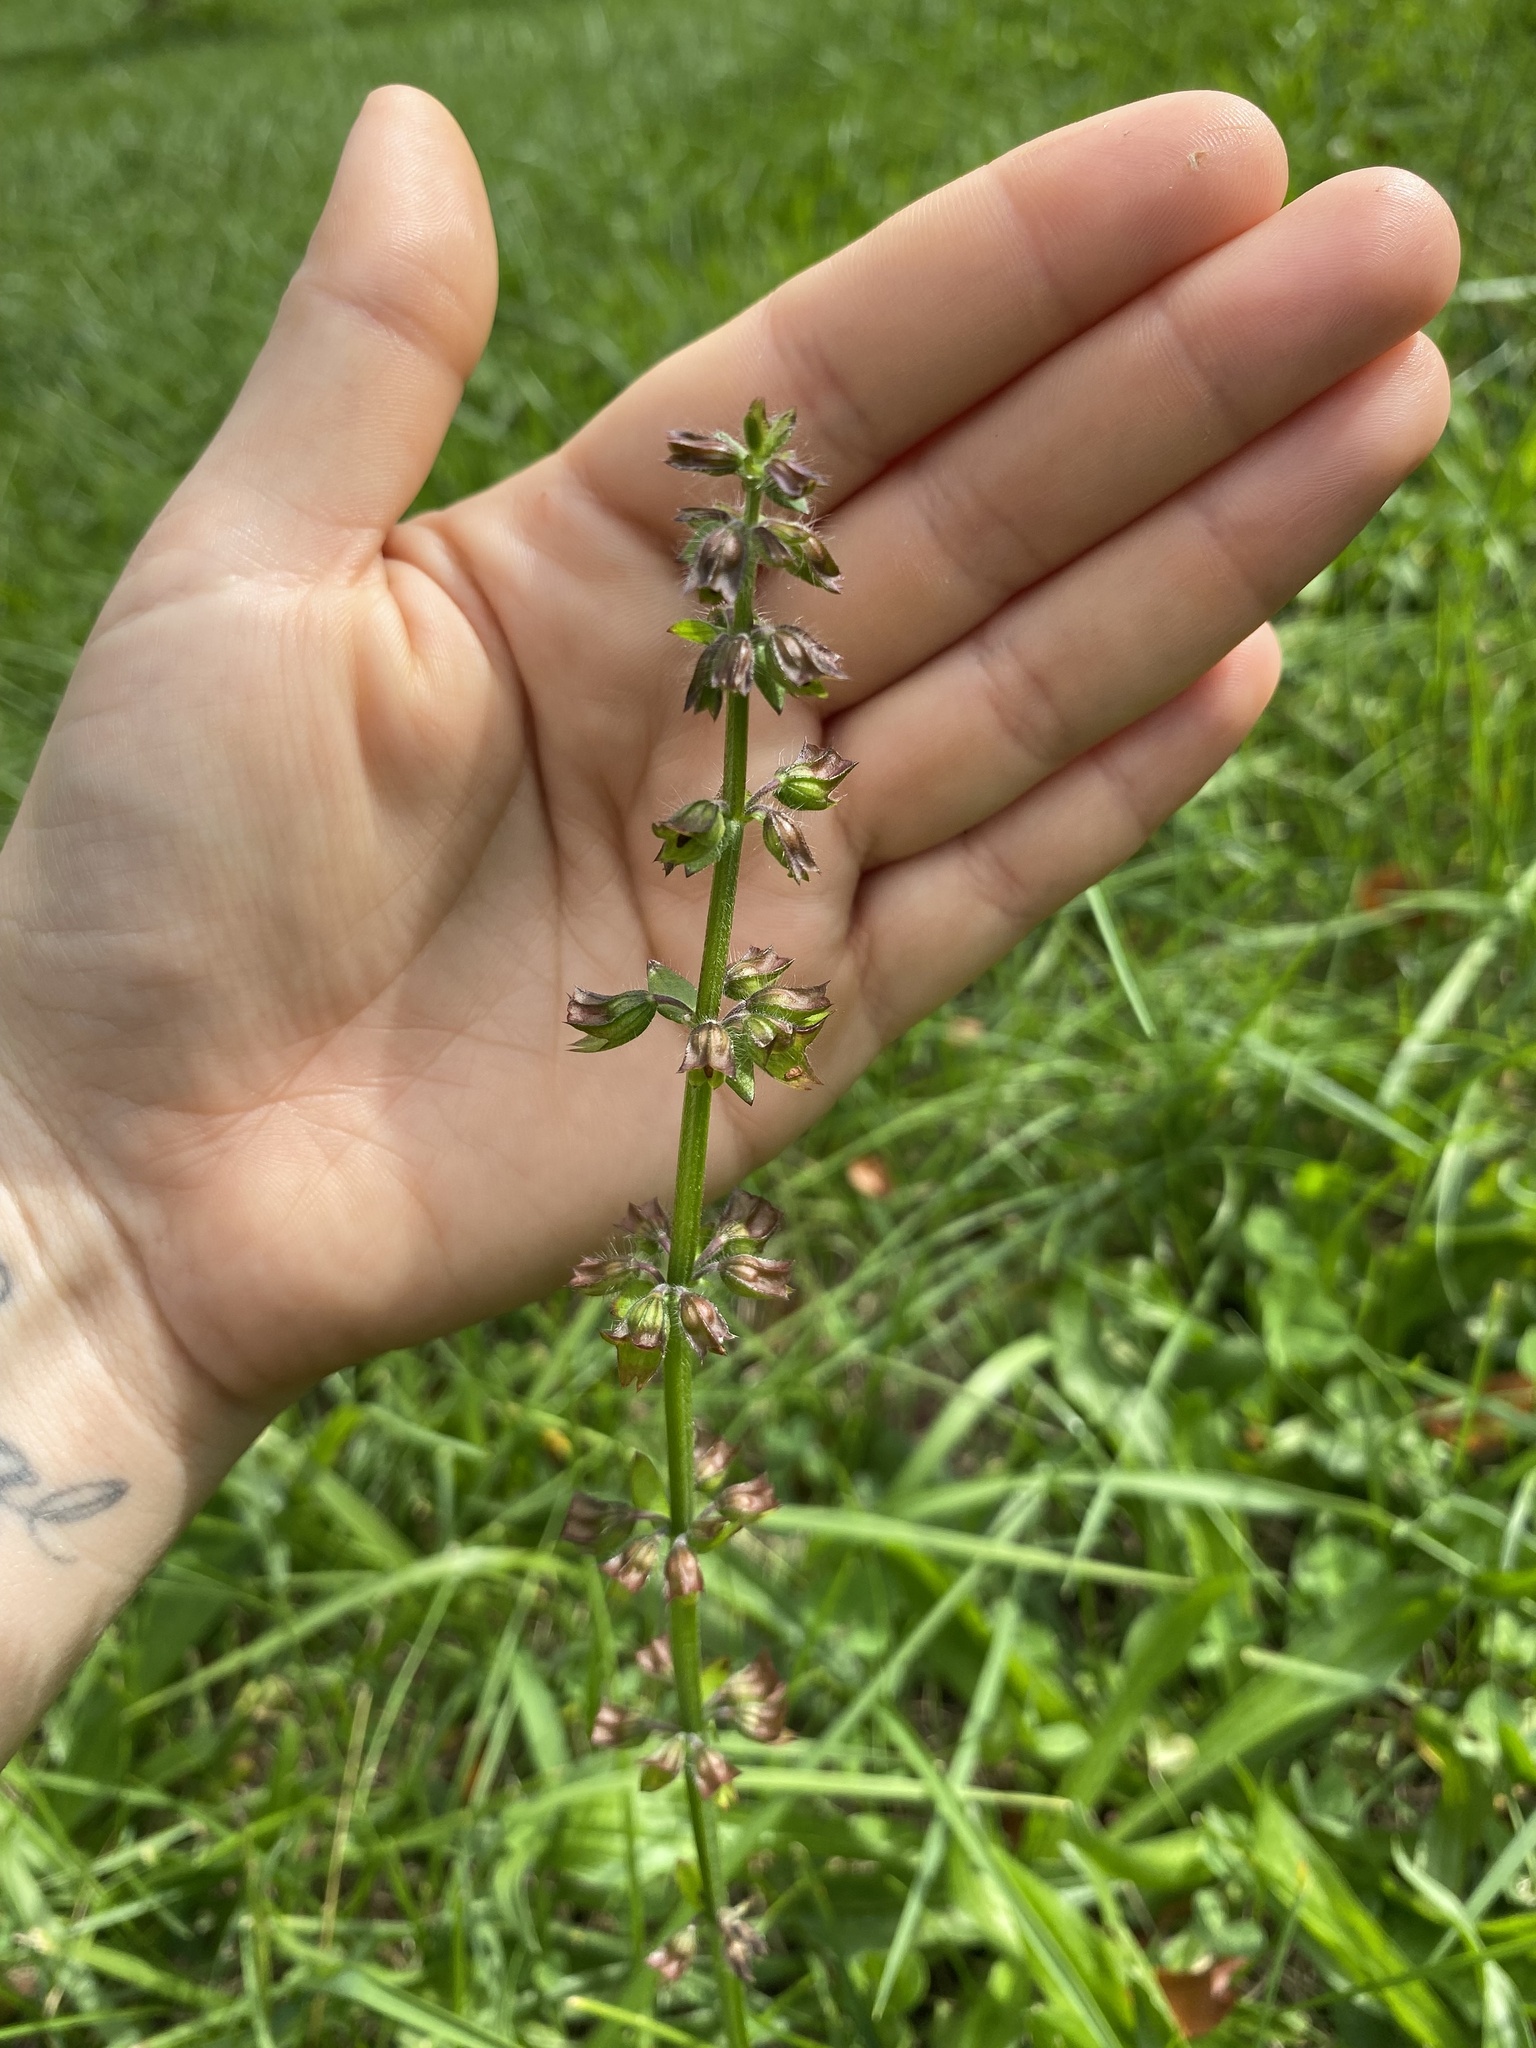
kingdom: Plantae
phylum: Tracheophyta
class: Magnoliopsida
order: Lamiales
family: Lamiaceae
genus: Salvia
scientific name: Salvia lyrata
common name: Cancerweed
